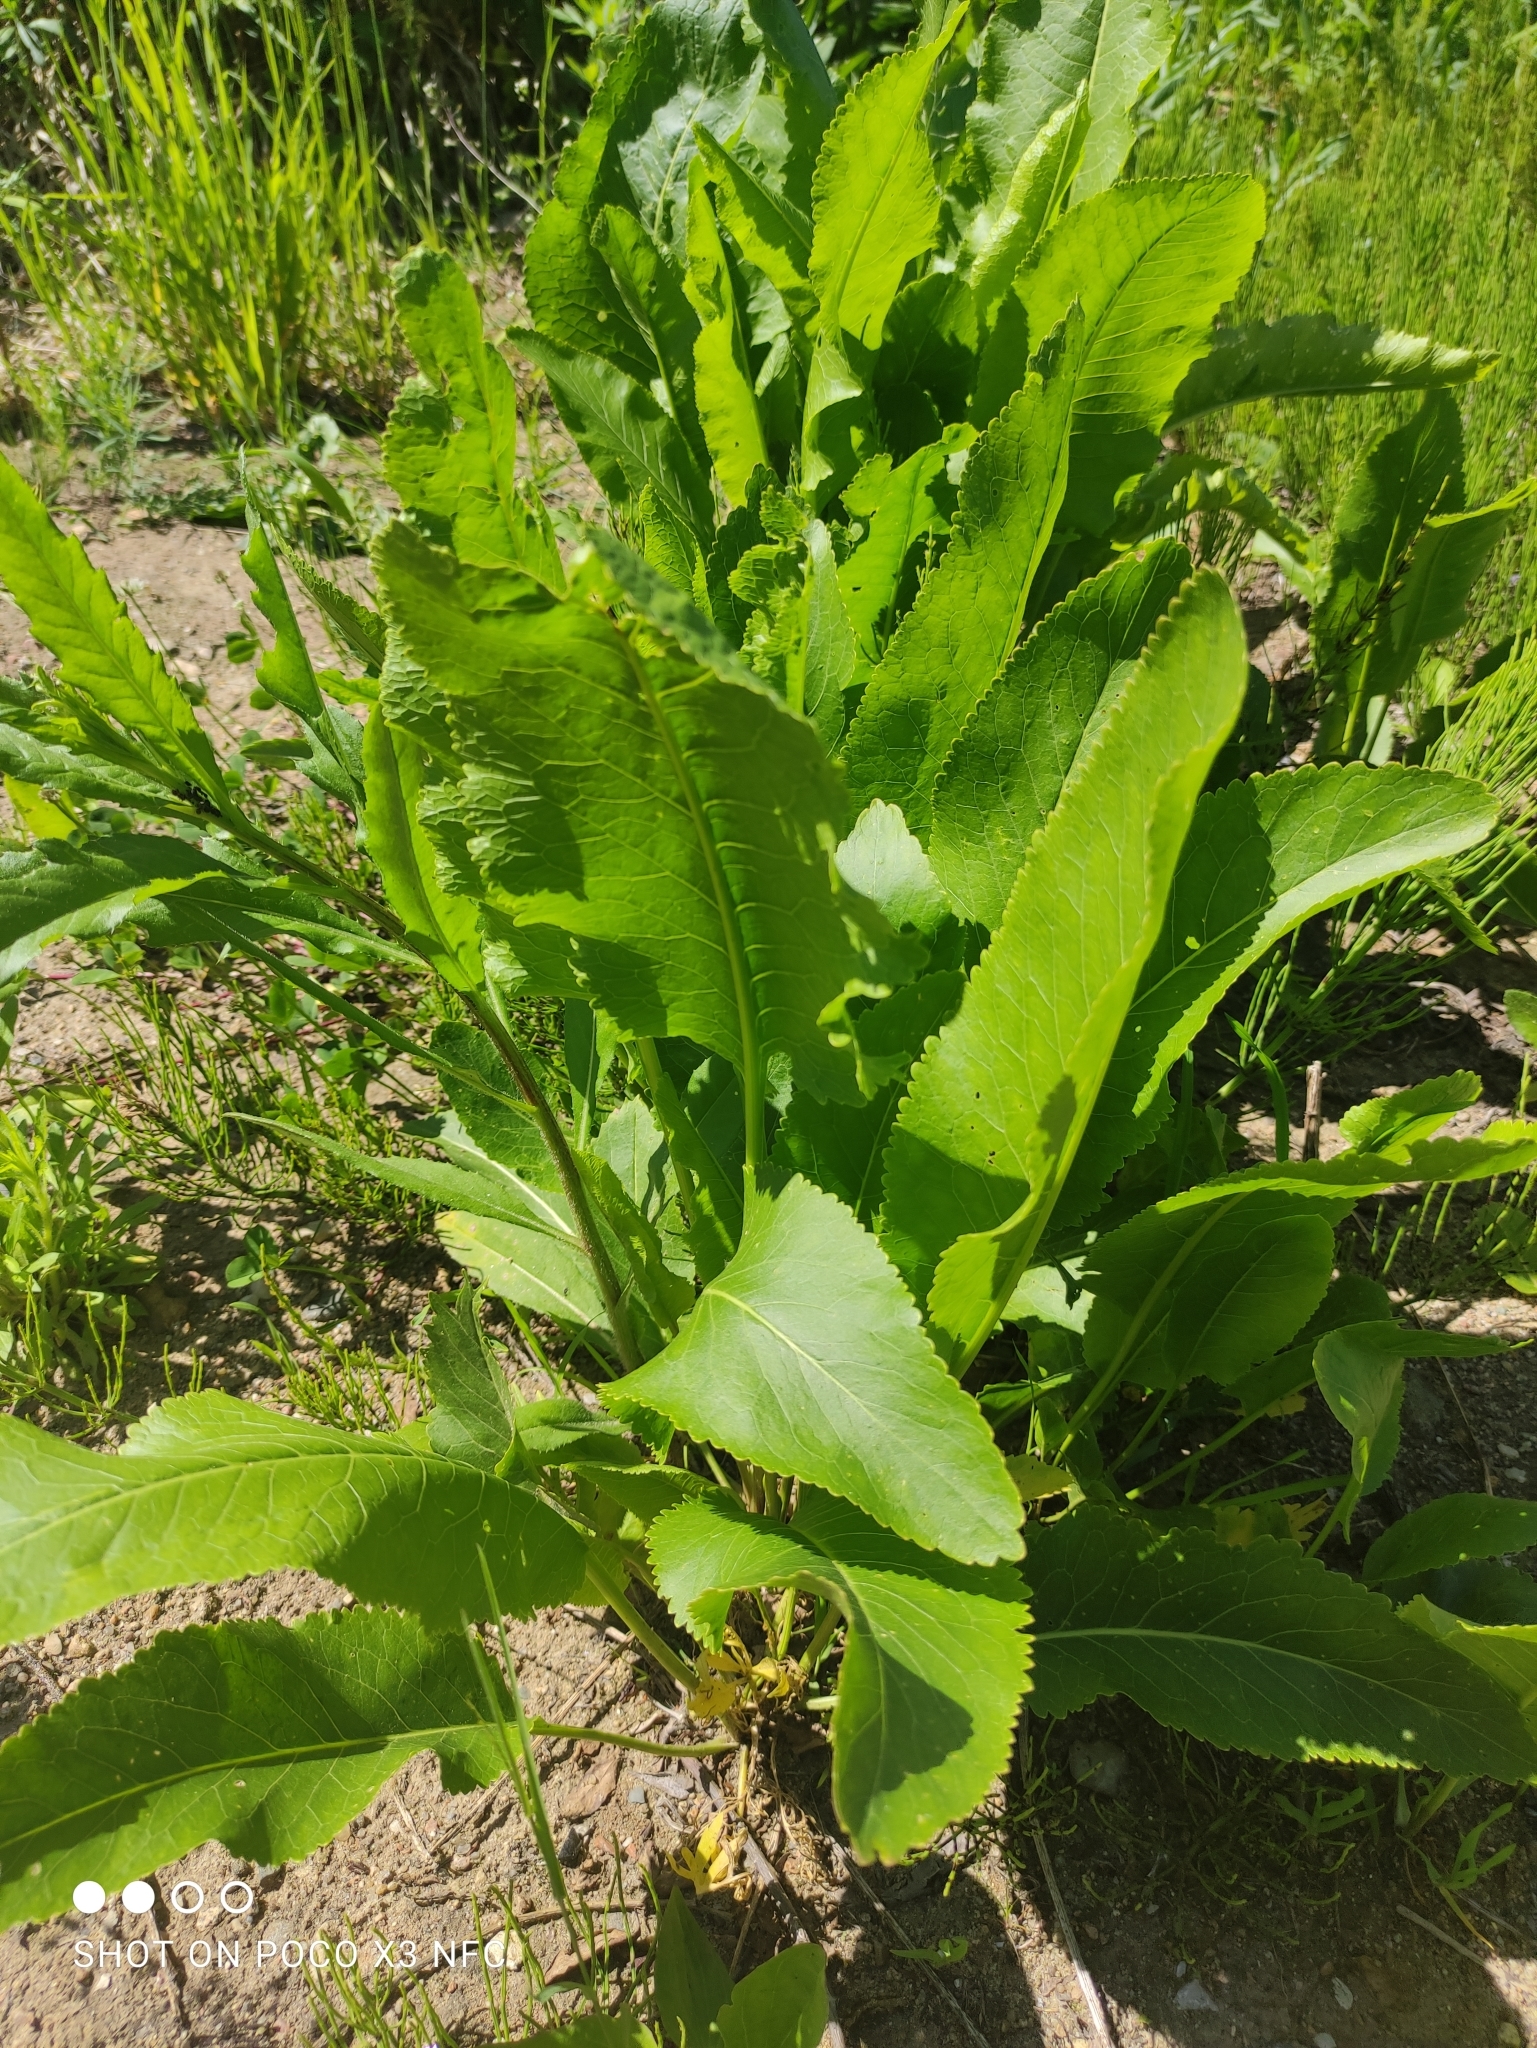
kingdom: Plantae
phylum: Tracheophyta
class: Magnoliopsida
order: Brassicales
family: Brassicaceae
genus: Armoracia
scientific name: Armoracia rusticana
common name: Horseradish
